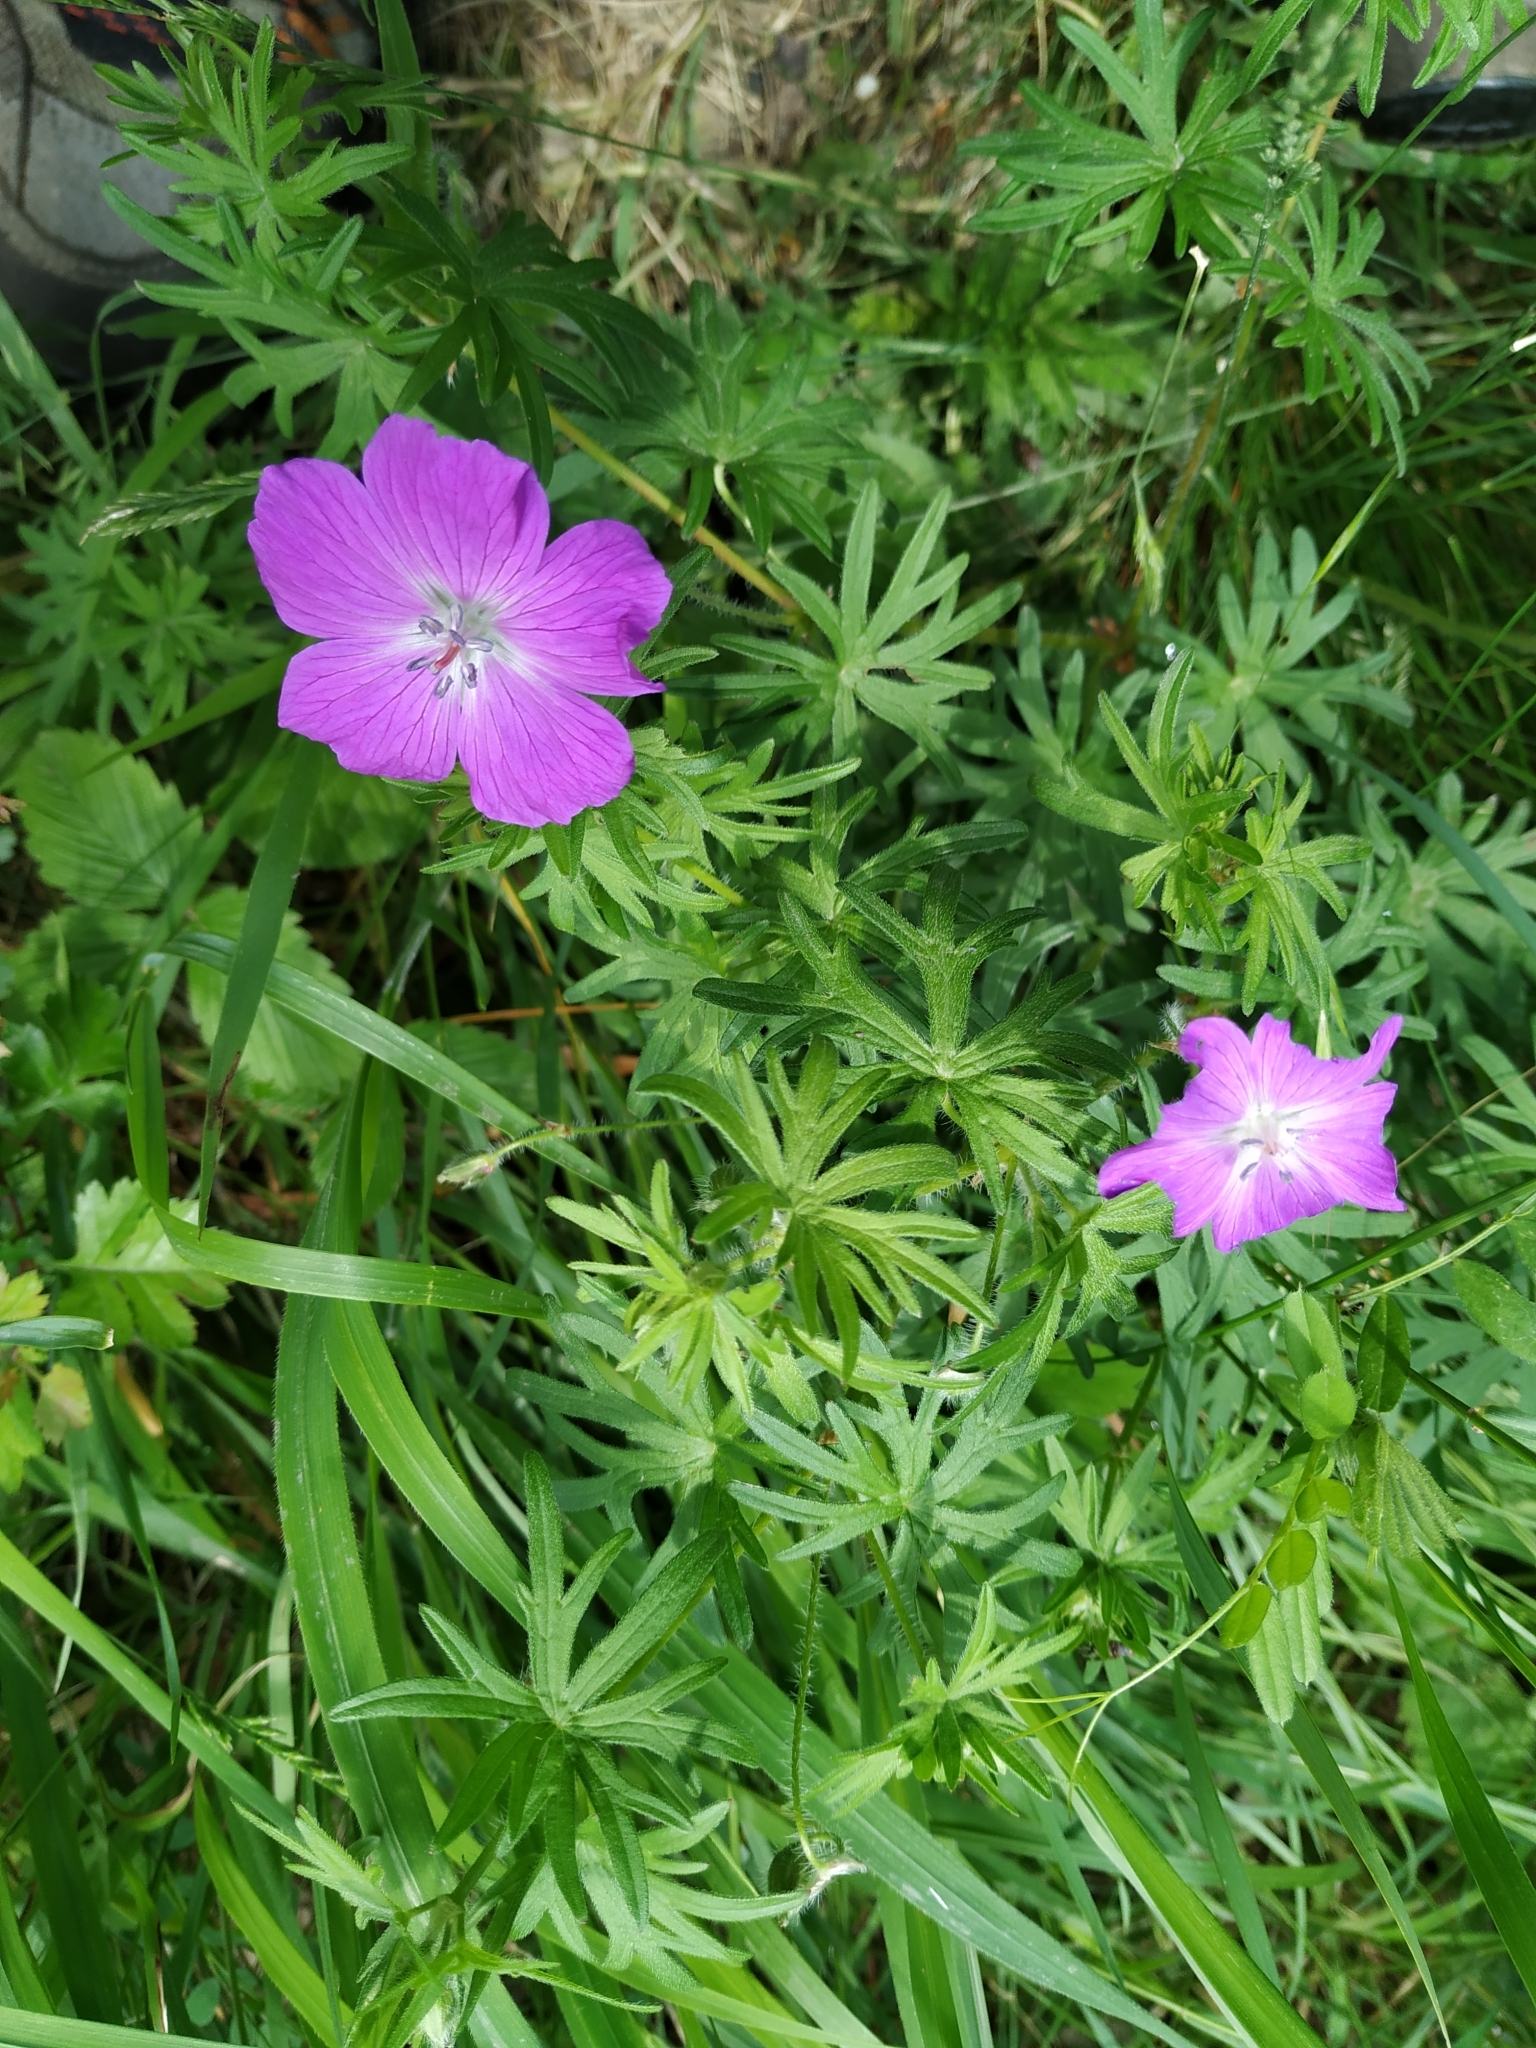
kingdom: Plantae
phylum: Tracheophyta
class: Magnoliopsida
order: Geraniales
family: Geraniaceae
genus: Geranium
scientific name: Geranium sanguineum
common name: Bloody crane's-bill
